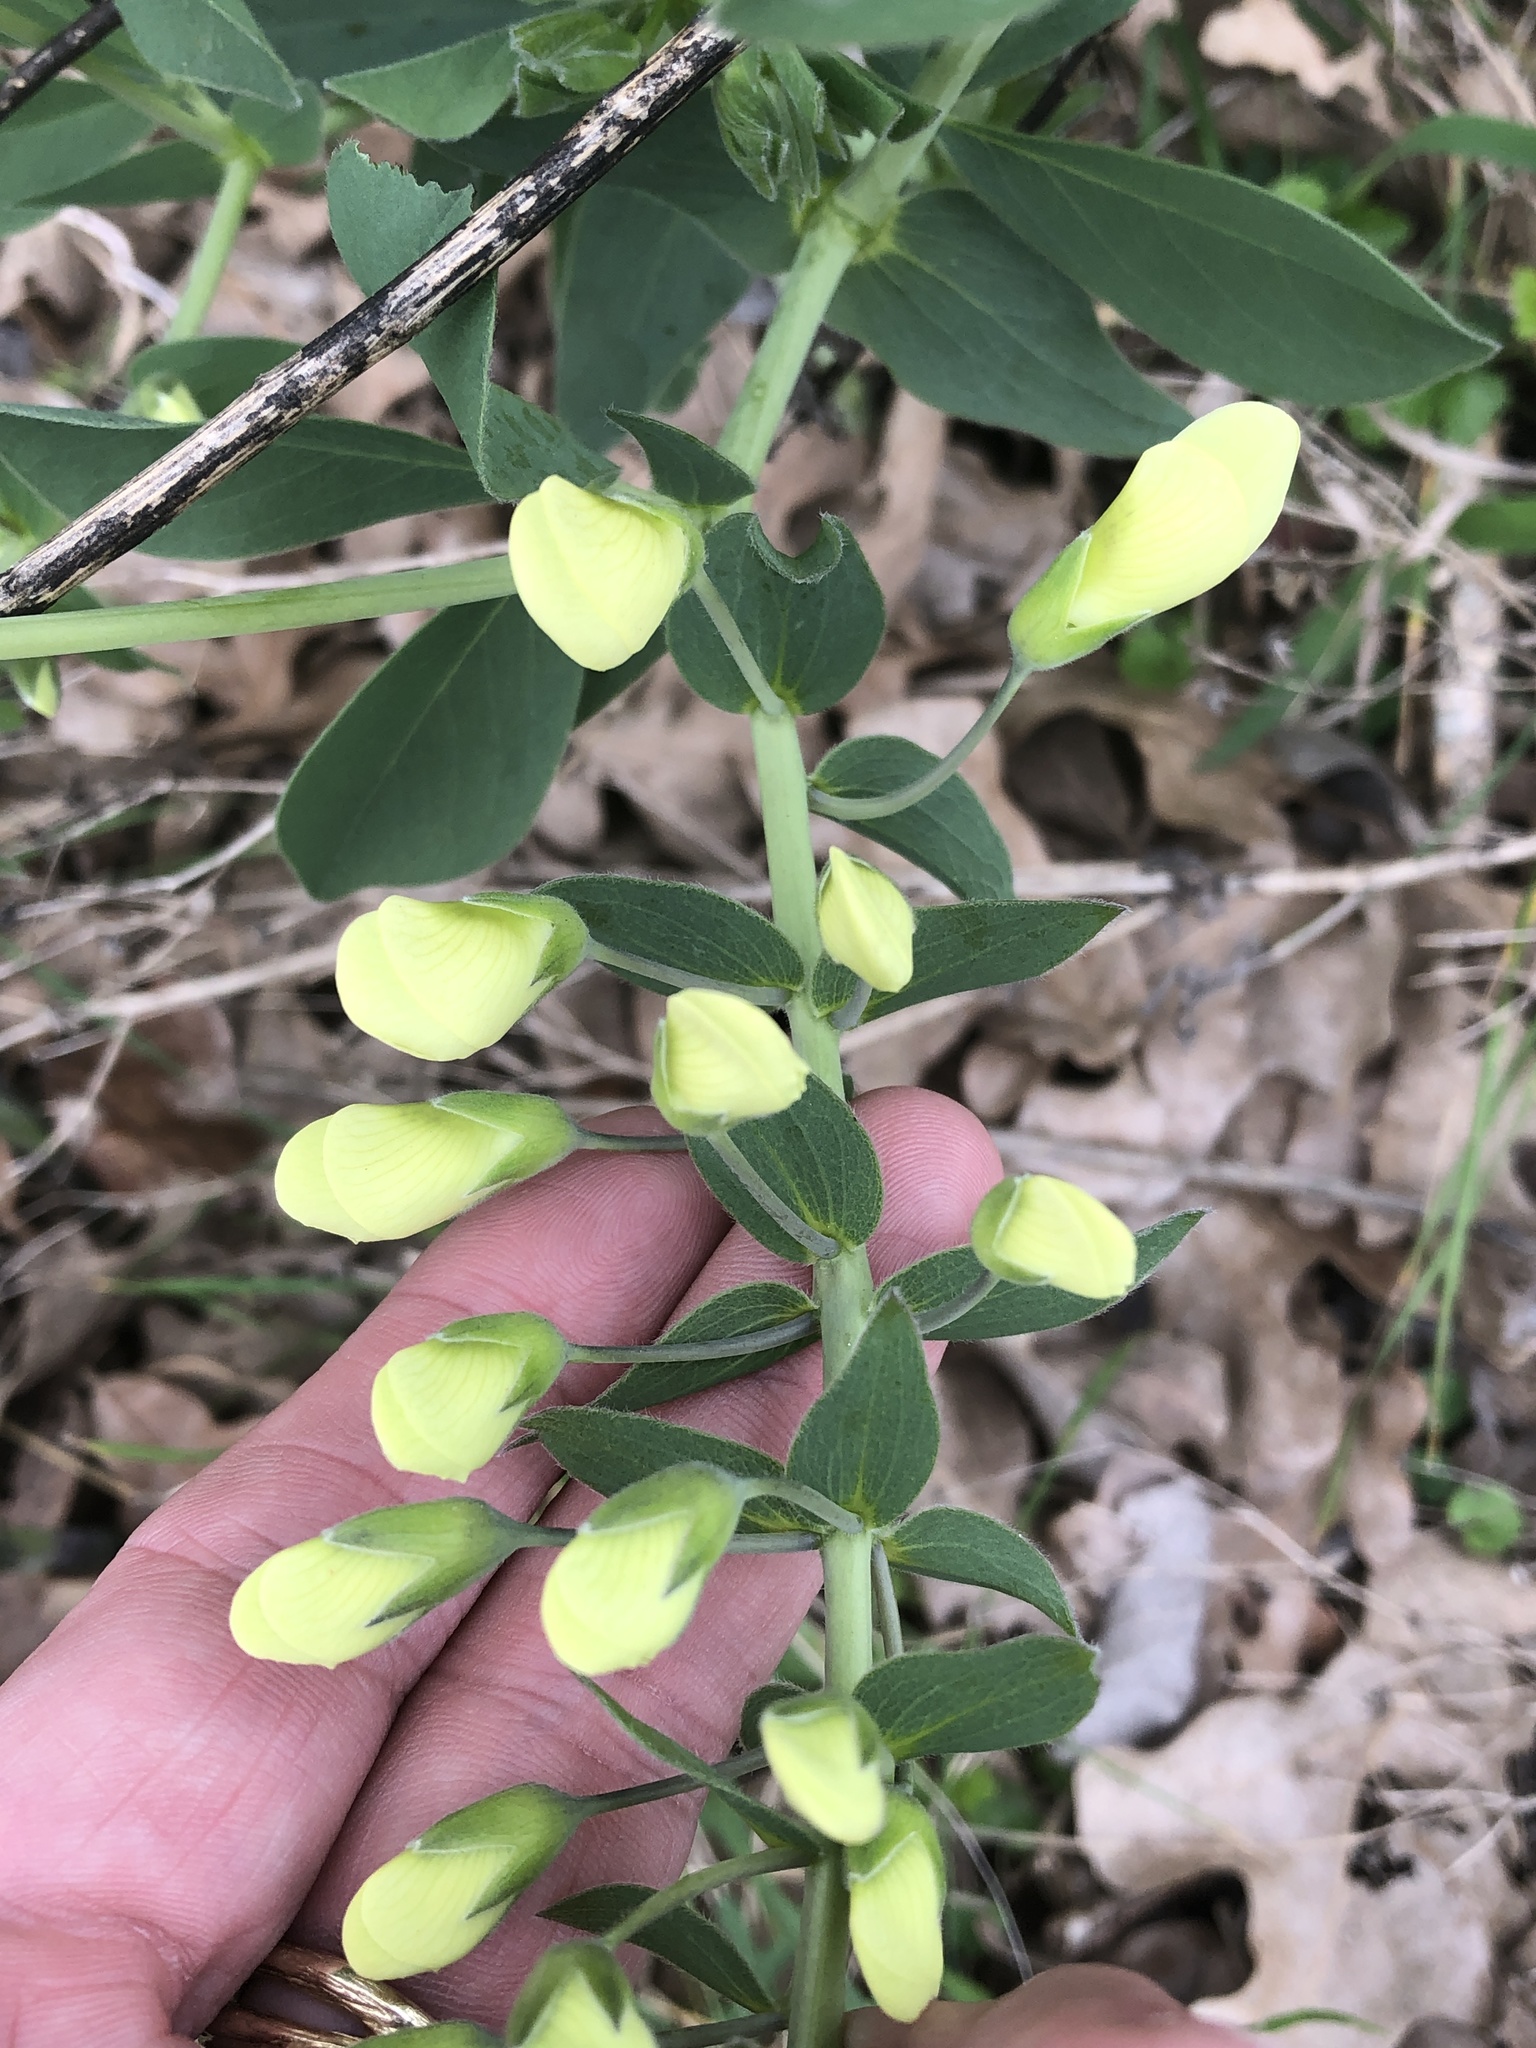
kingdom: Plantae
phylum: Tracheophyta
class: Magnoliopsida
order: Fabales
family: Fabaceae
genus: Baptisia
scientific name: Baptisia bracteata
